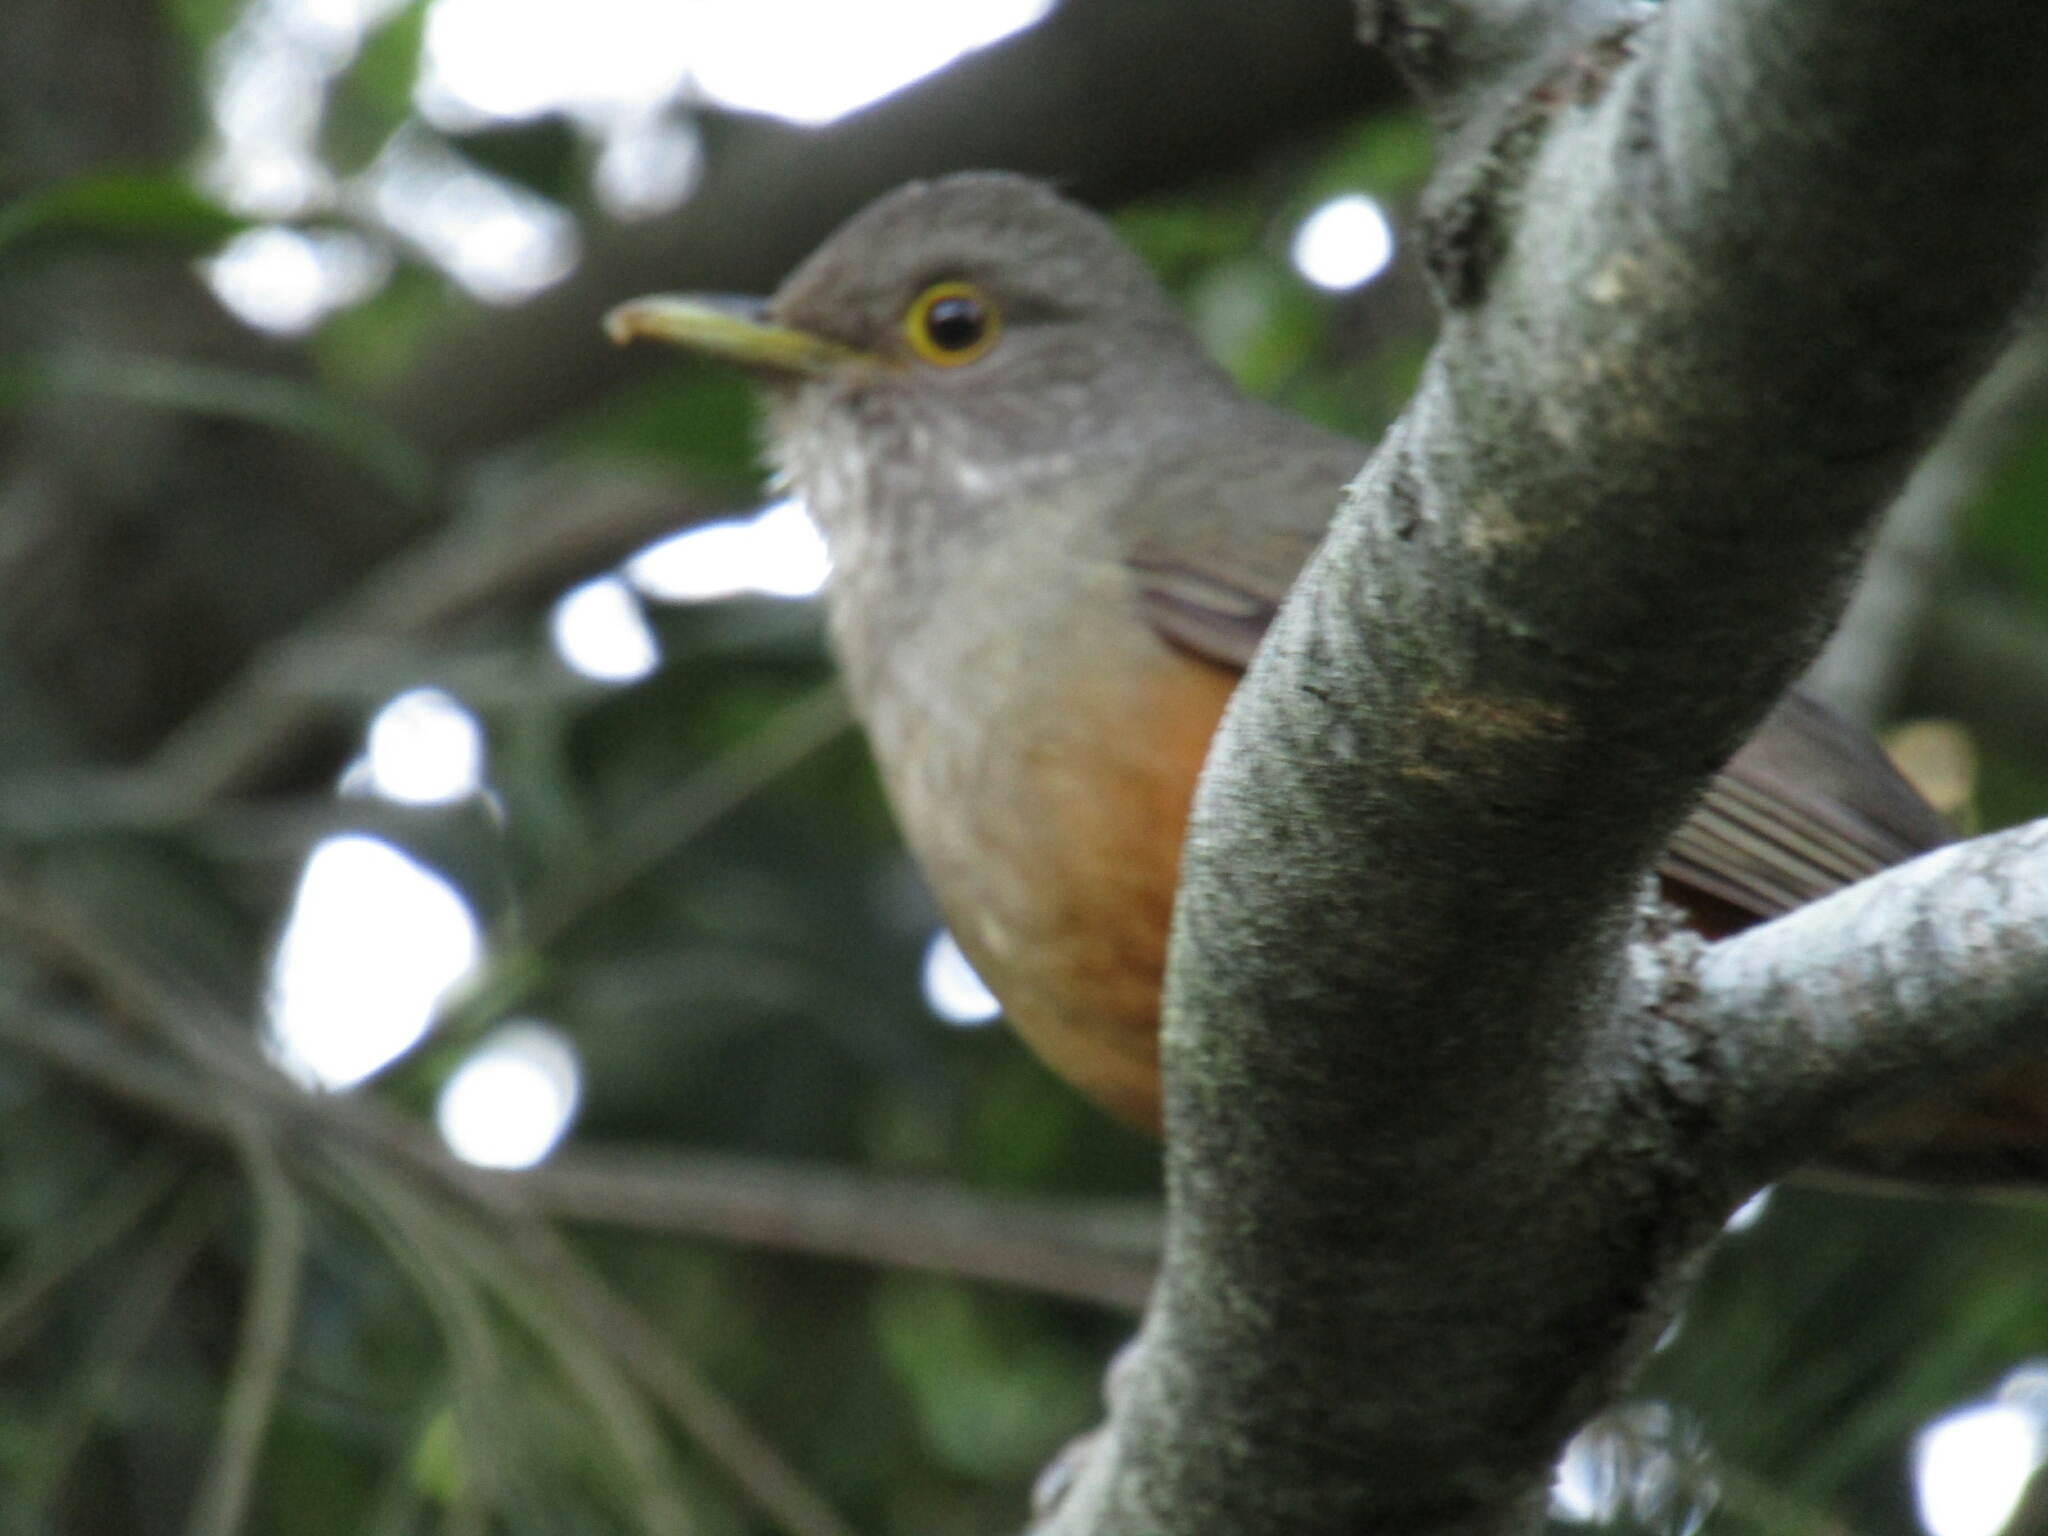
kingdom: Animalia
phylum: Chordata
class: Aves
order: Passeriformes
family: Turdidae
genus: Turdus
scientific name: Turdus rufiventris
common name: Rufous-bellied thrush
